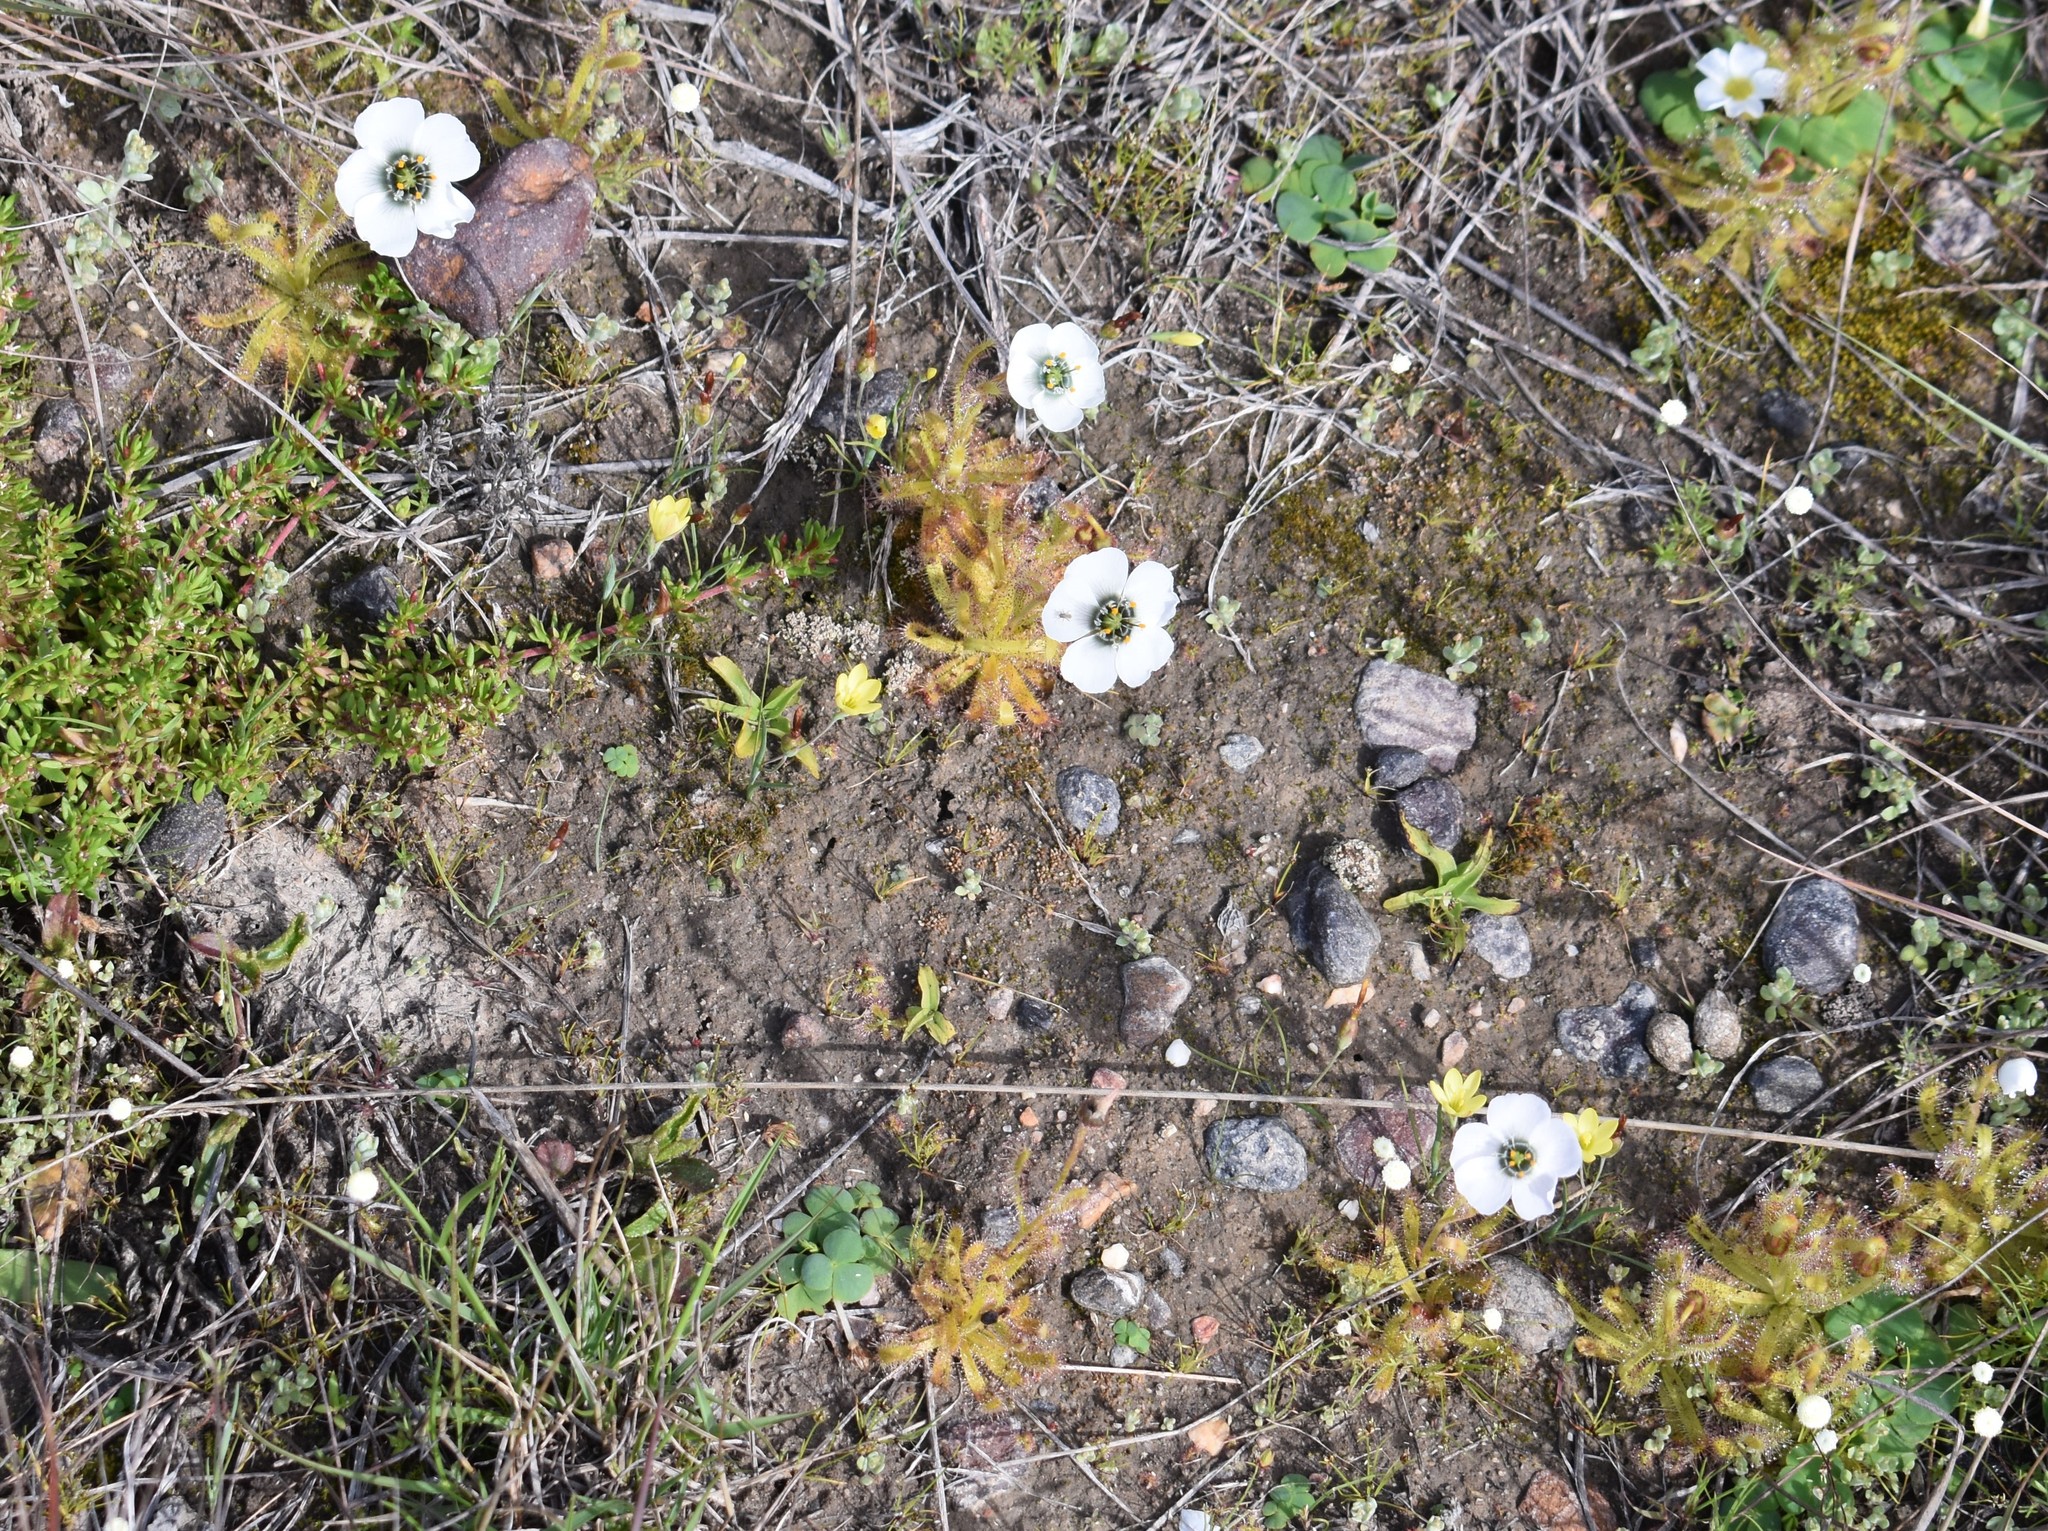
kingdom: Plantae
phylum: Tracheophyta
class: Magnoliopsida
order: Caryophyllales
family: Droseraceae
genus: Drosera
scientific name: Drosera cistiflora
